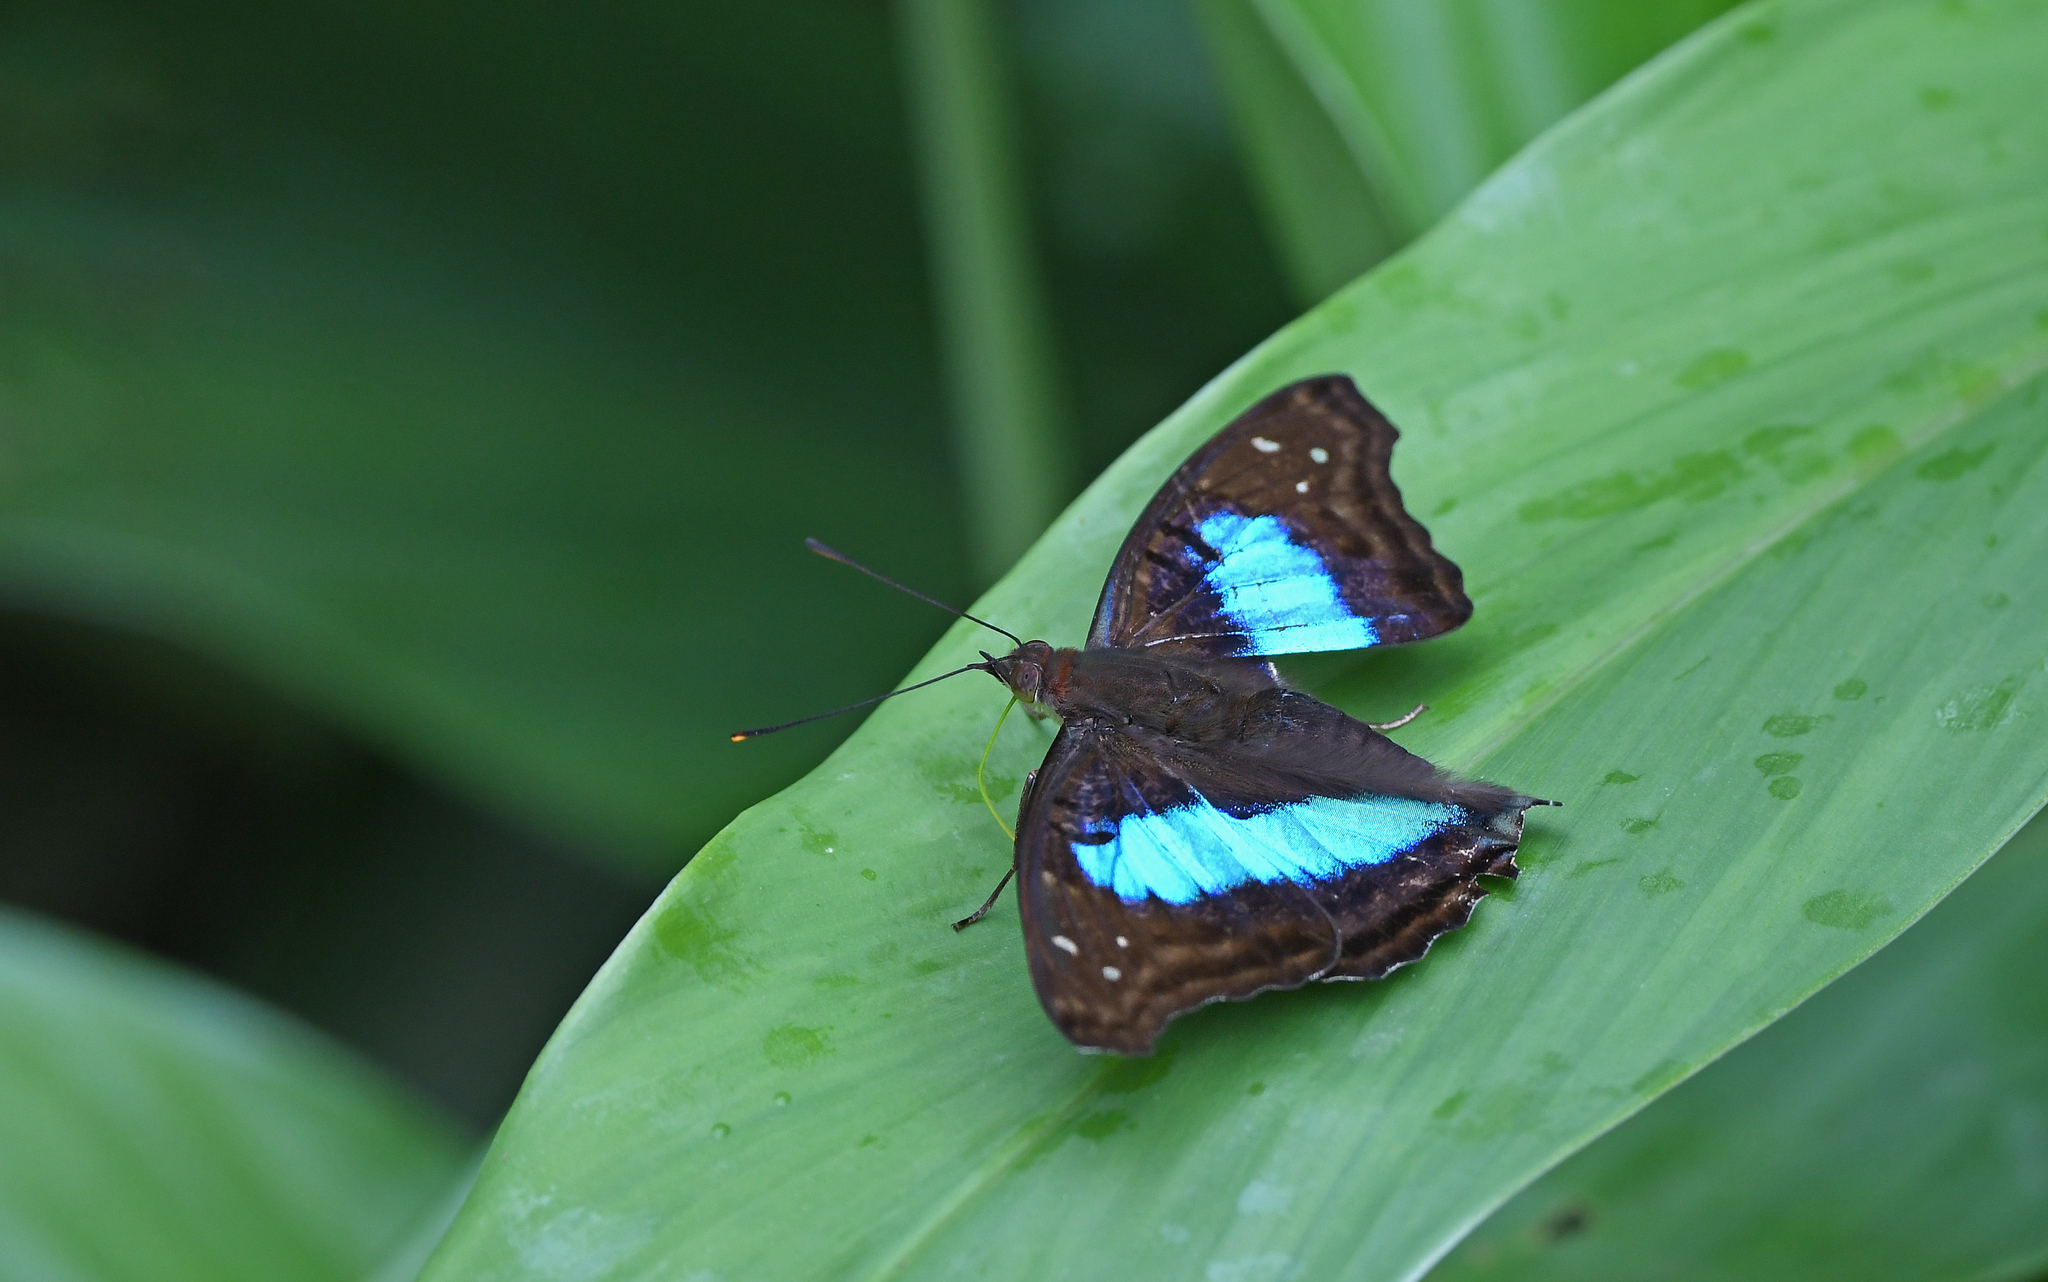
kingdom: Animalia
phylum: Arthropoda
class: Insecta
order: Lepidoptera
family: Nymphalidae
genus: Doxocopa
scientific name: Doxocopa laurentia
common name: Turquoise emperor
